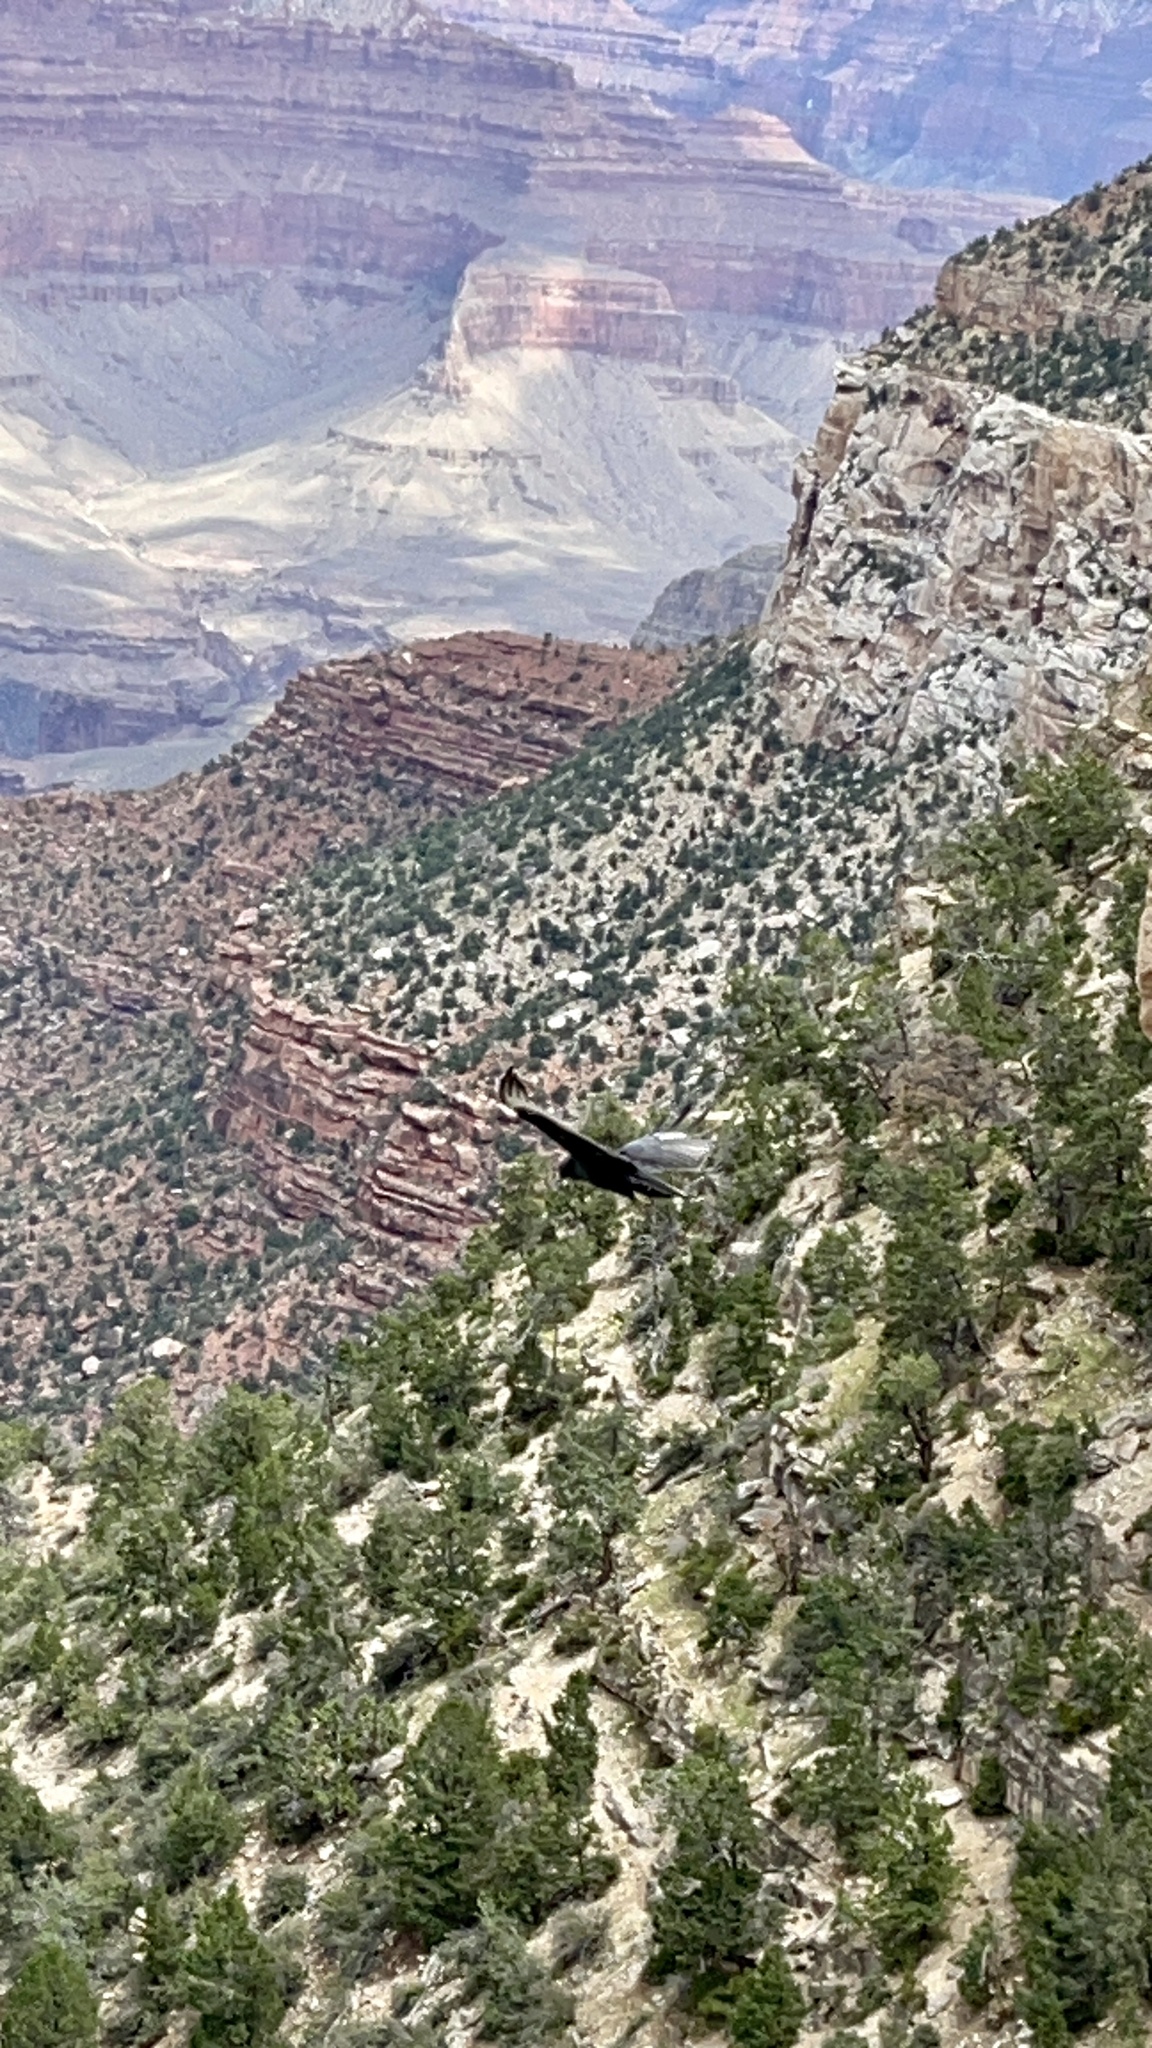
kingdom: Animalia
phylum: Chordata
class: Aves
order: Accipitriformes
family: Accipitridae
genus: Buteo
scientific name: Buteo albonotatus
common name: Zone-tailed hawk
